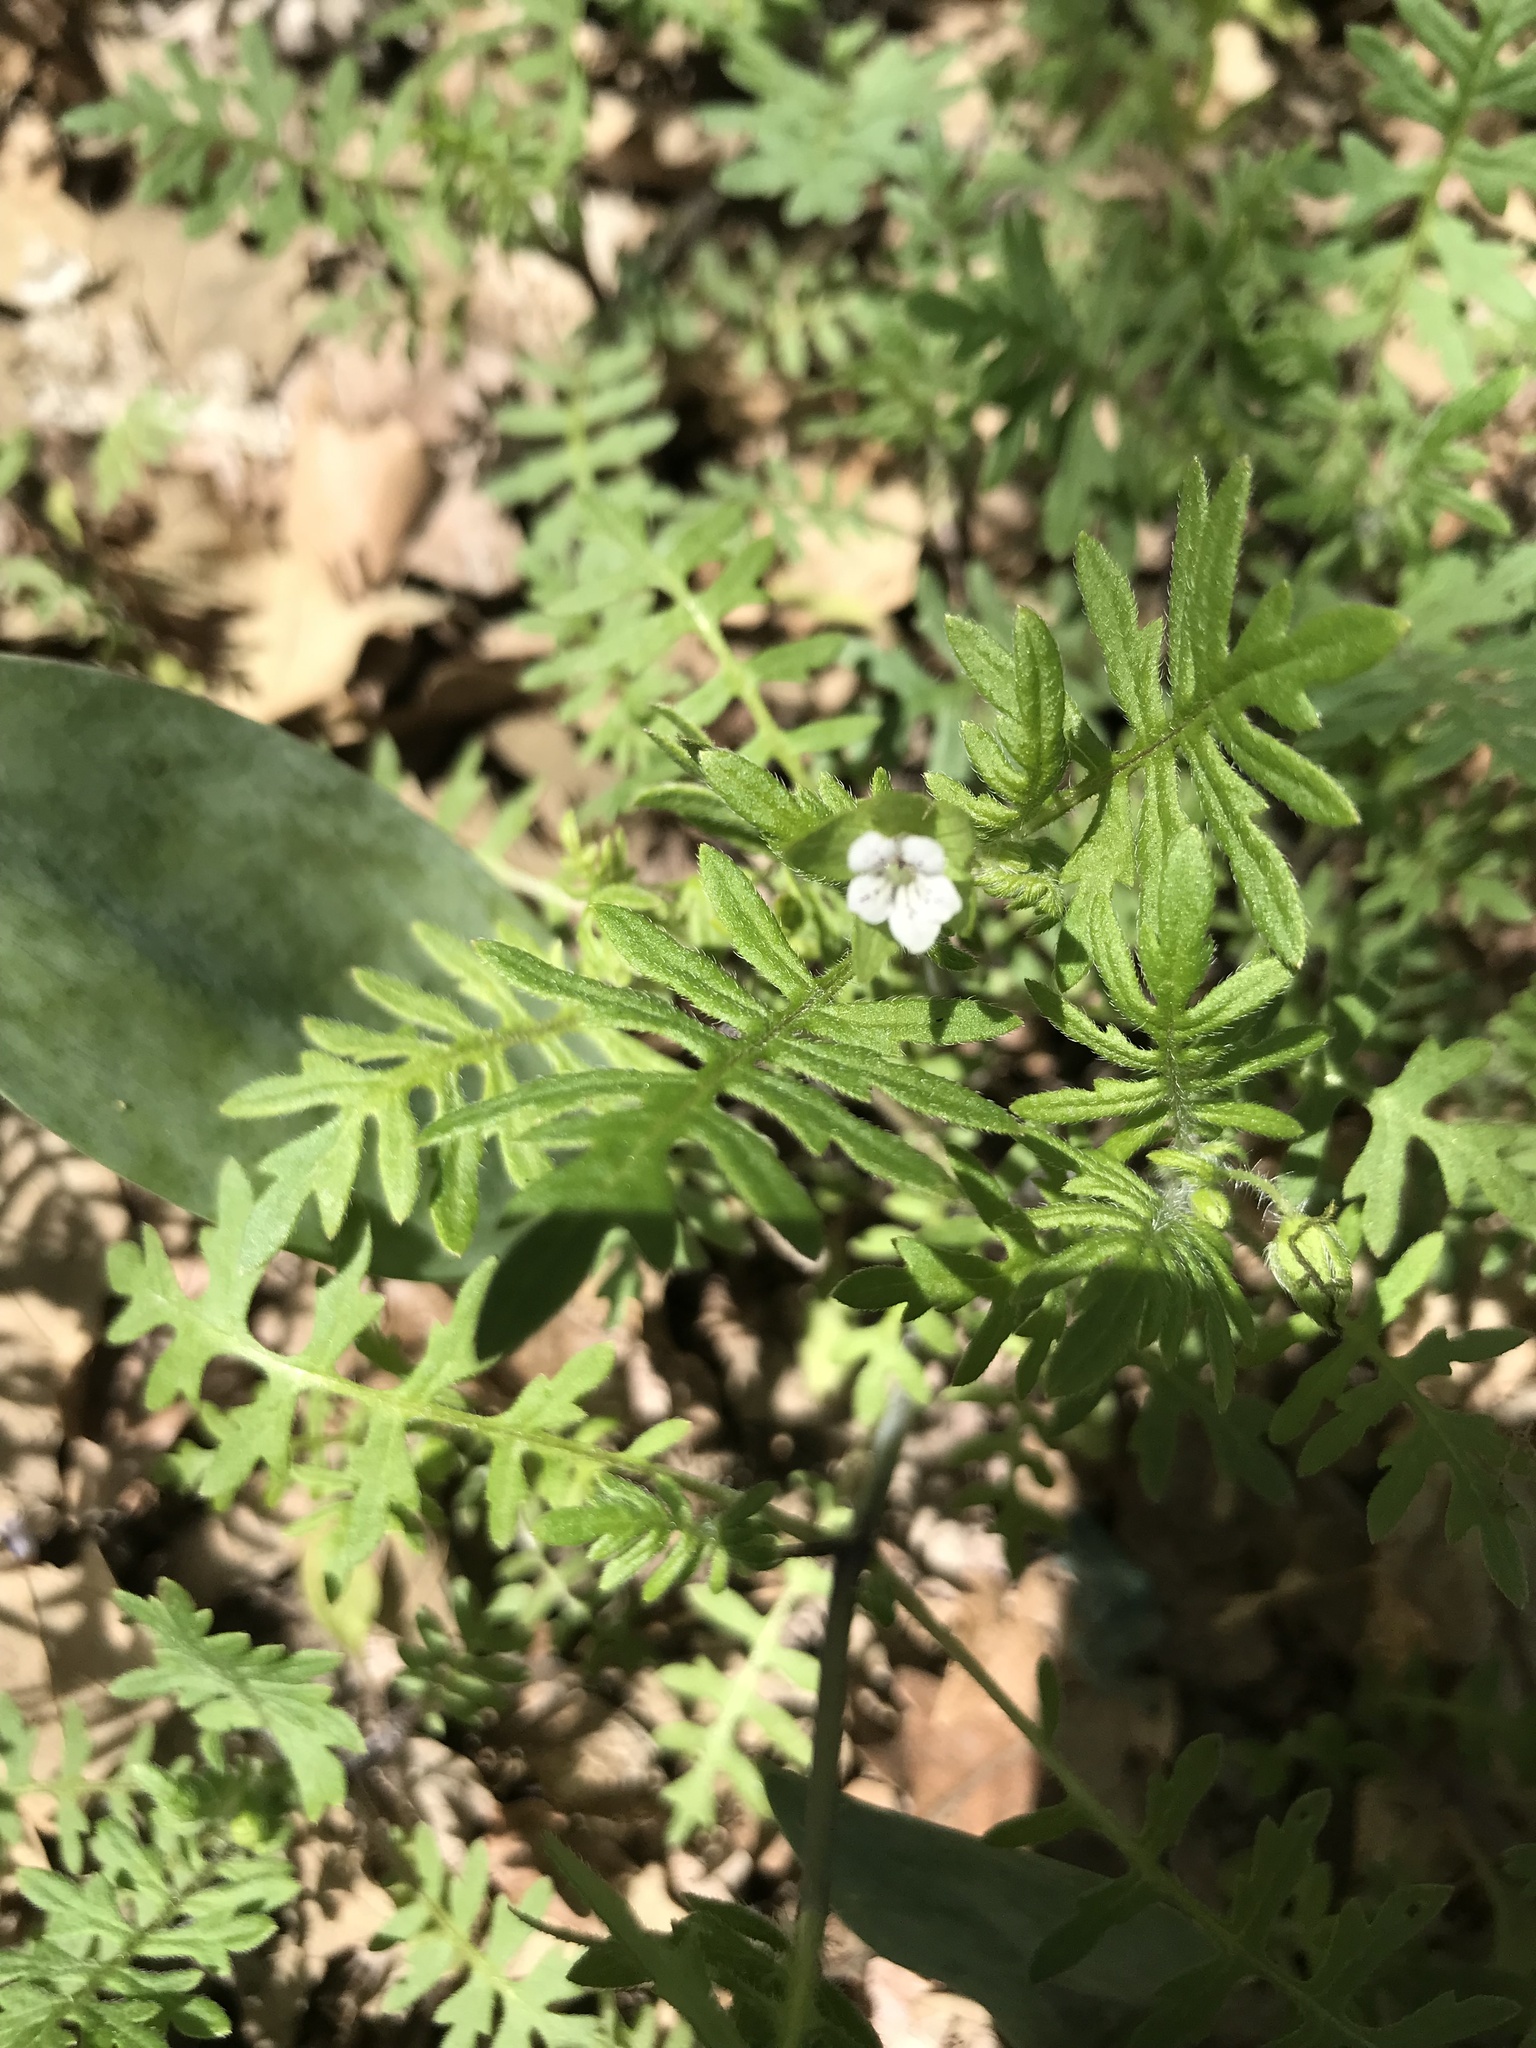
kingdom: Plantae
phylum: Tracheophyta
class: Magnoliopsida
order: Boraginales
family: Hydrophyllaceae
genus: Ellisia
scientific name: Ellisia nyctelea
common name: Aunt lucy
